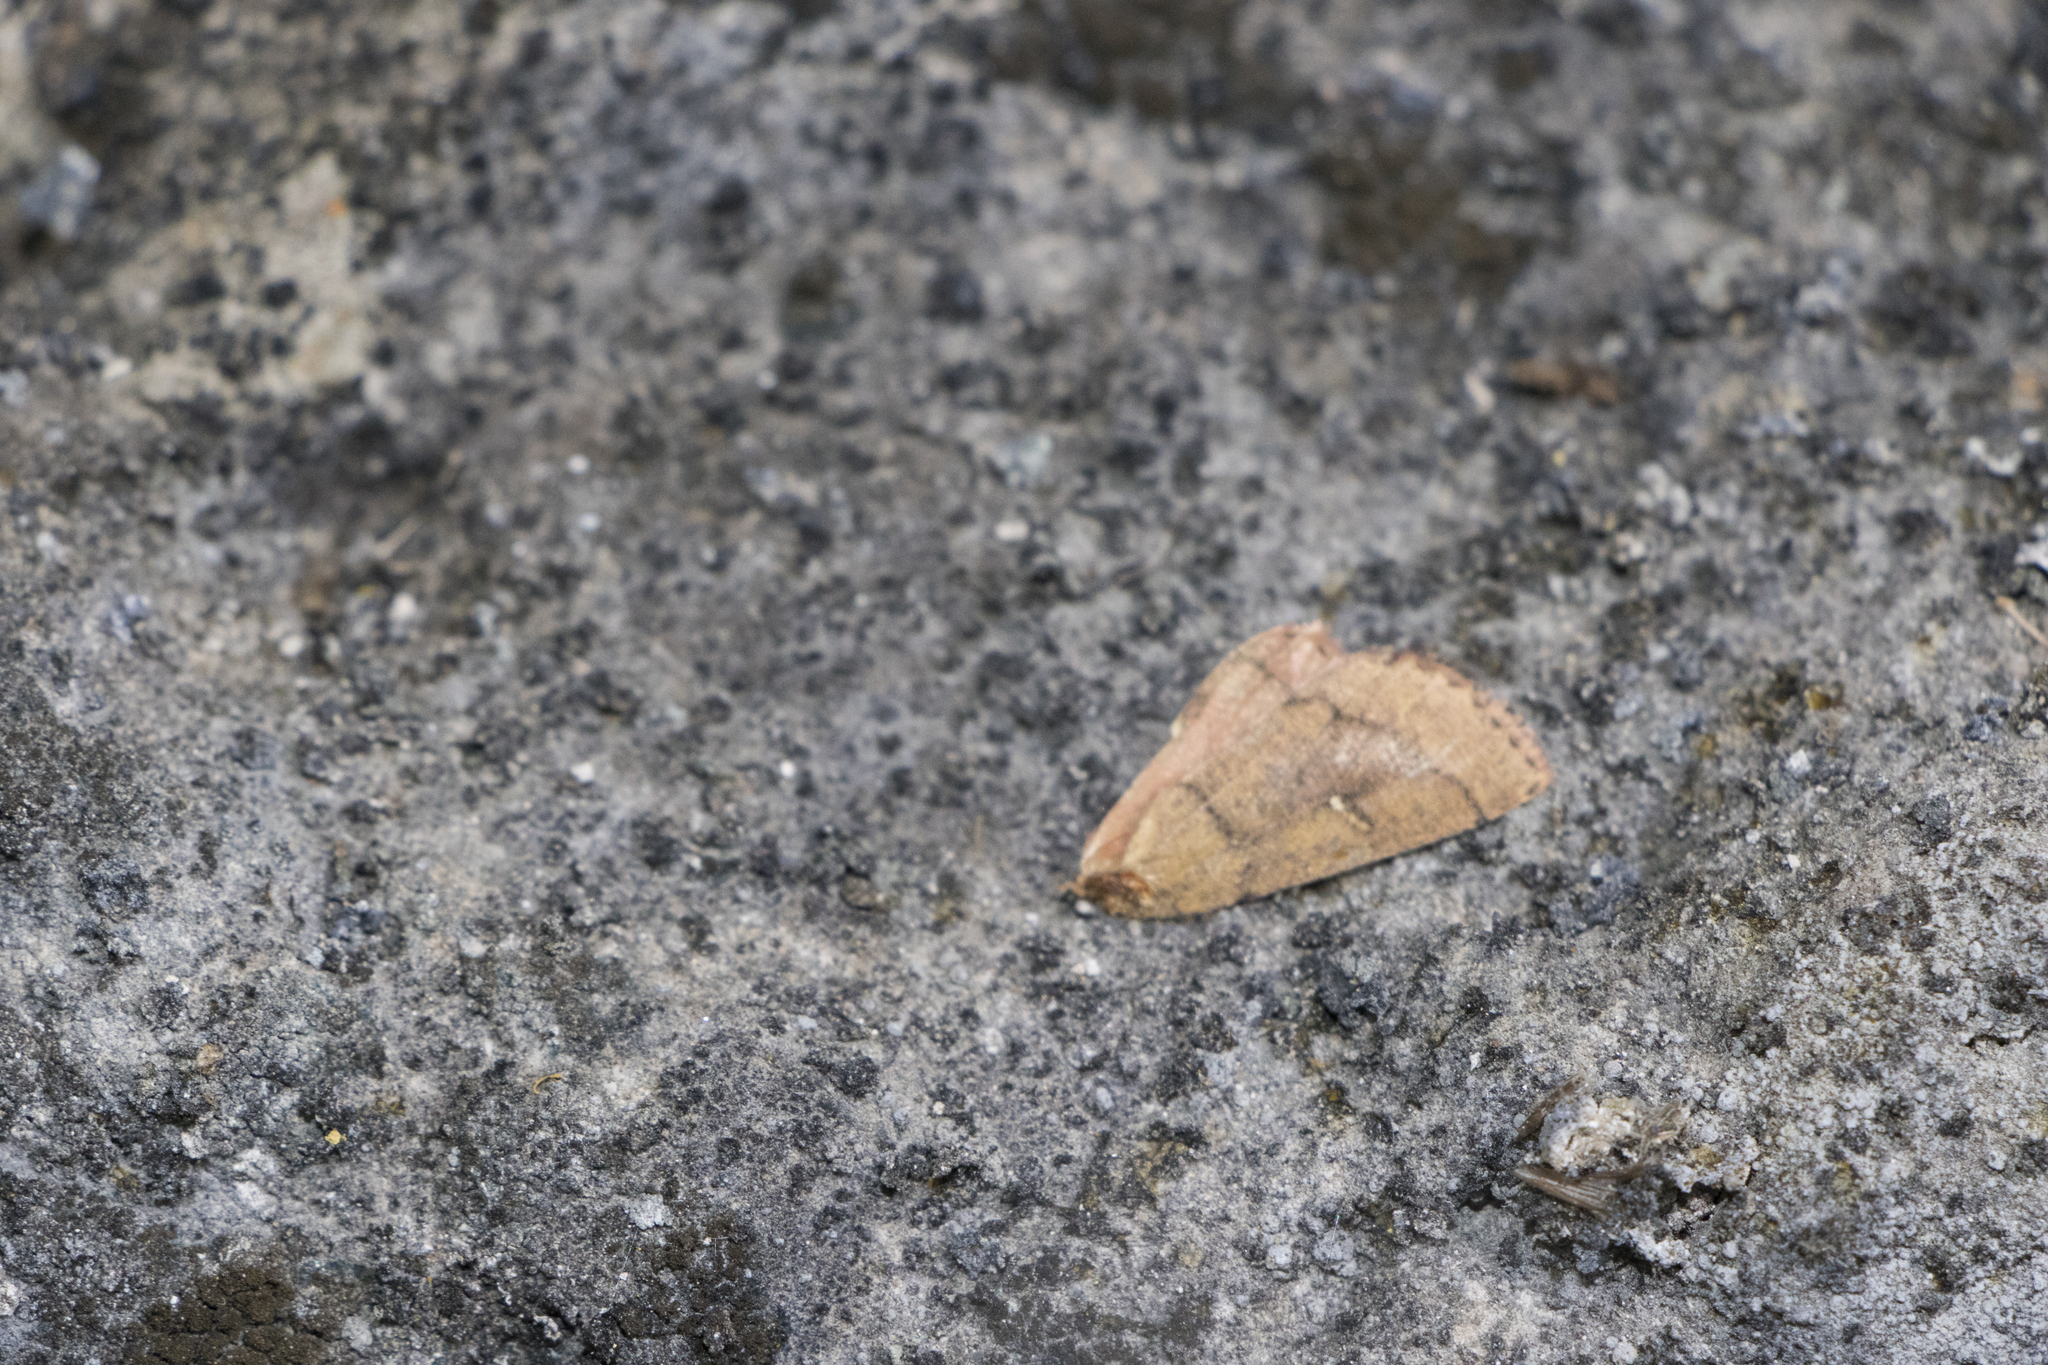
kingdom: Animalia
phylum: Arthropoda
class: Insecta
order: Lepidoptera
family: Noctuidae
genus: Mythimna
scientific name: Mythimna turca
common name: Double line
